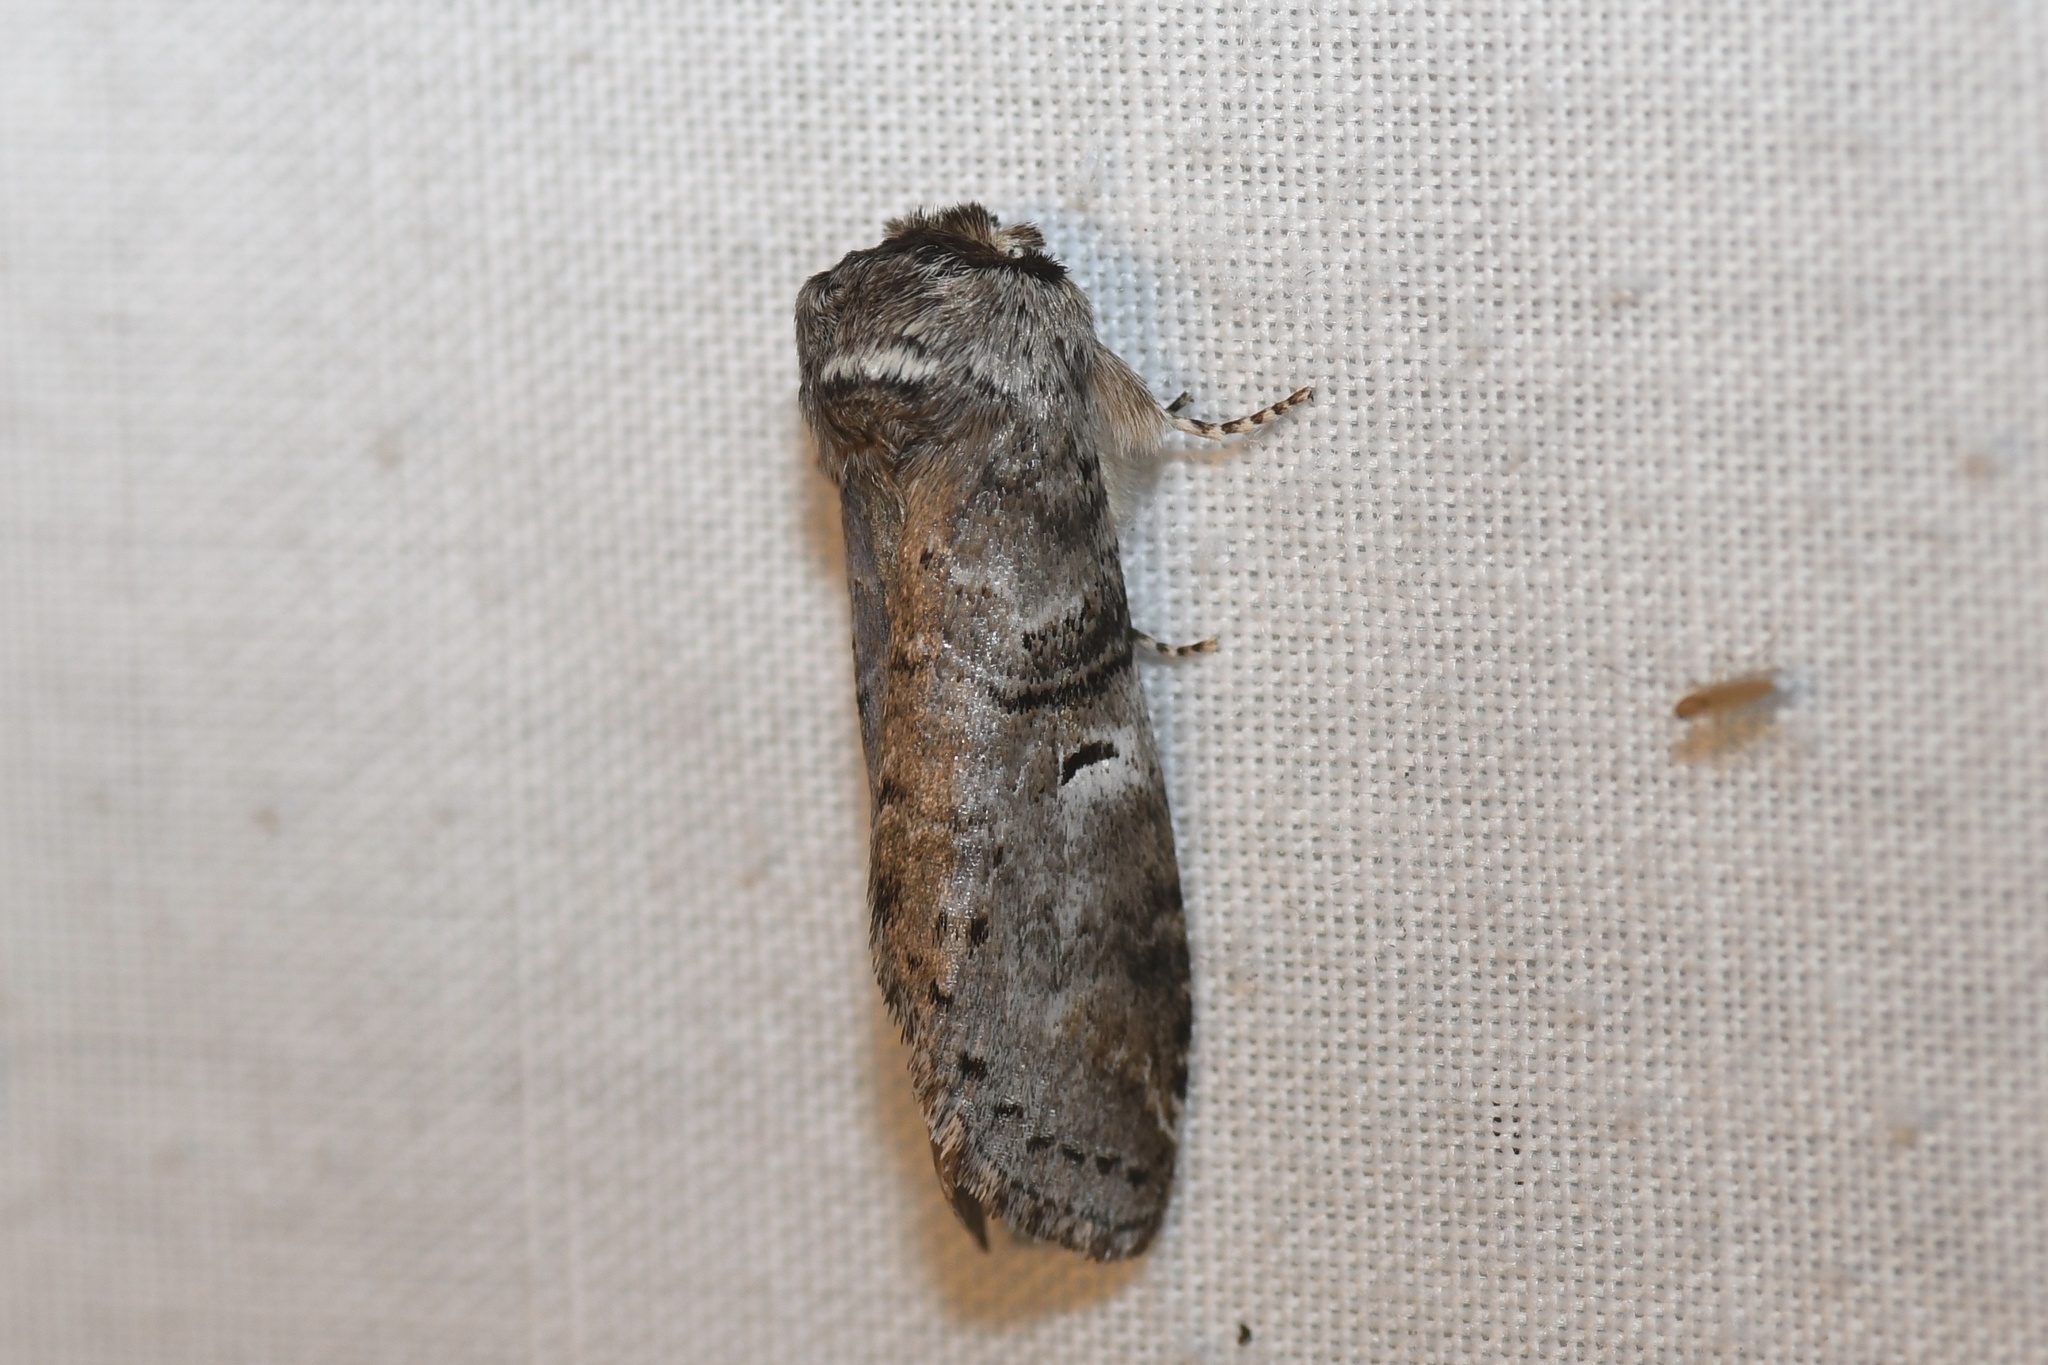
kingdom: Animalia
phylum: Arthropoda
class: Insecta
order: Lepidoptera
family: Notodontidae
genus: Ellida
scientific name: Ellida caniplaga
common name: Linden prominent
